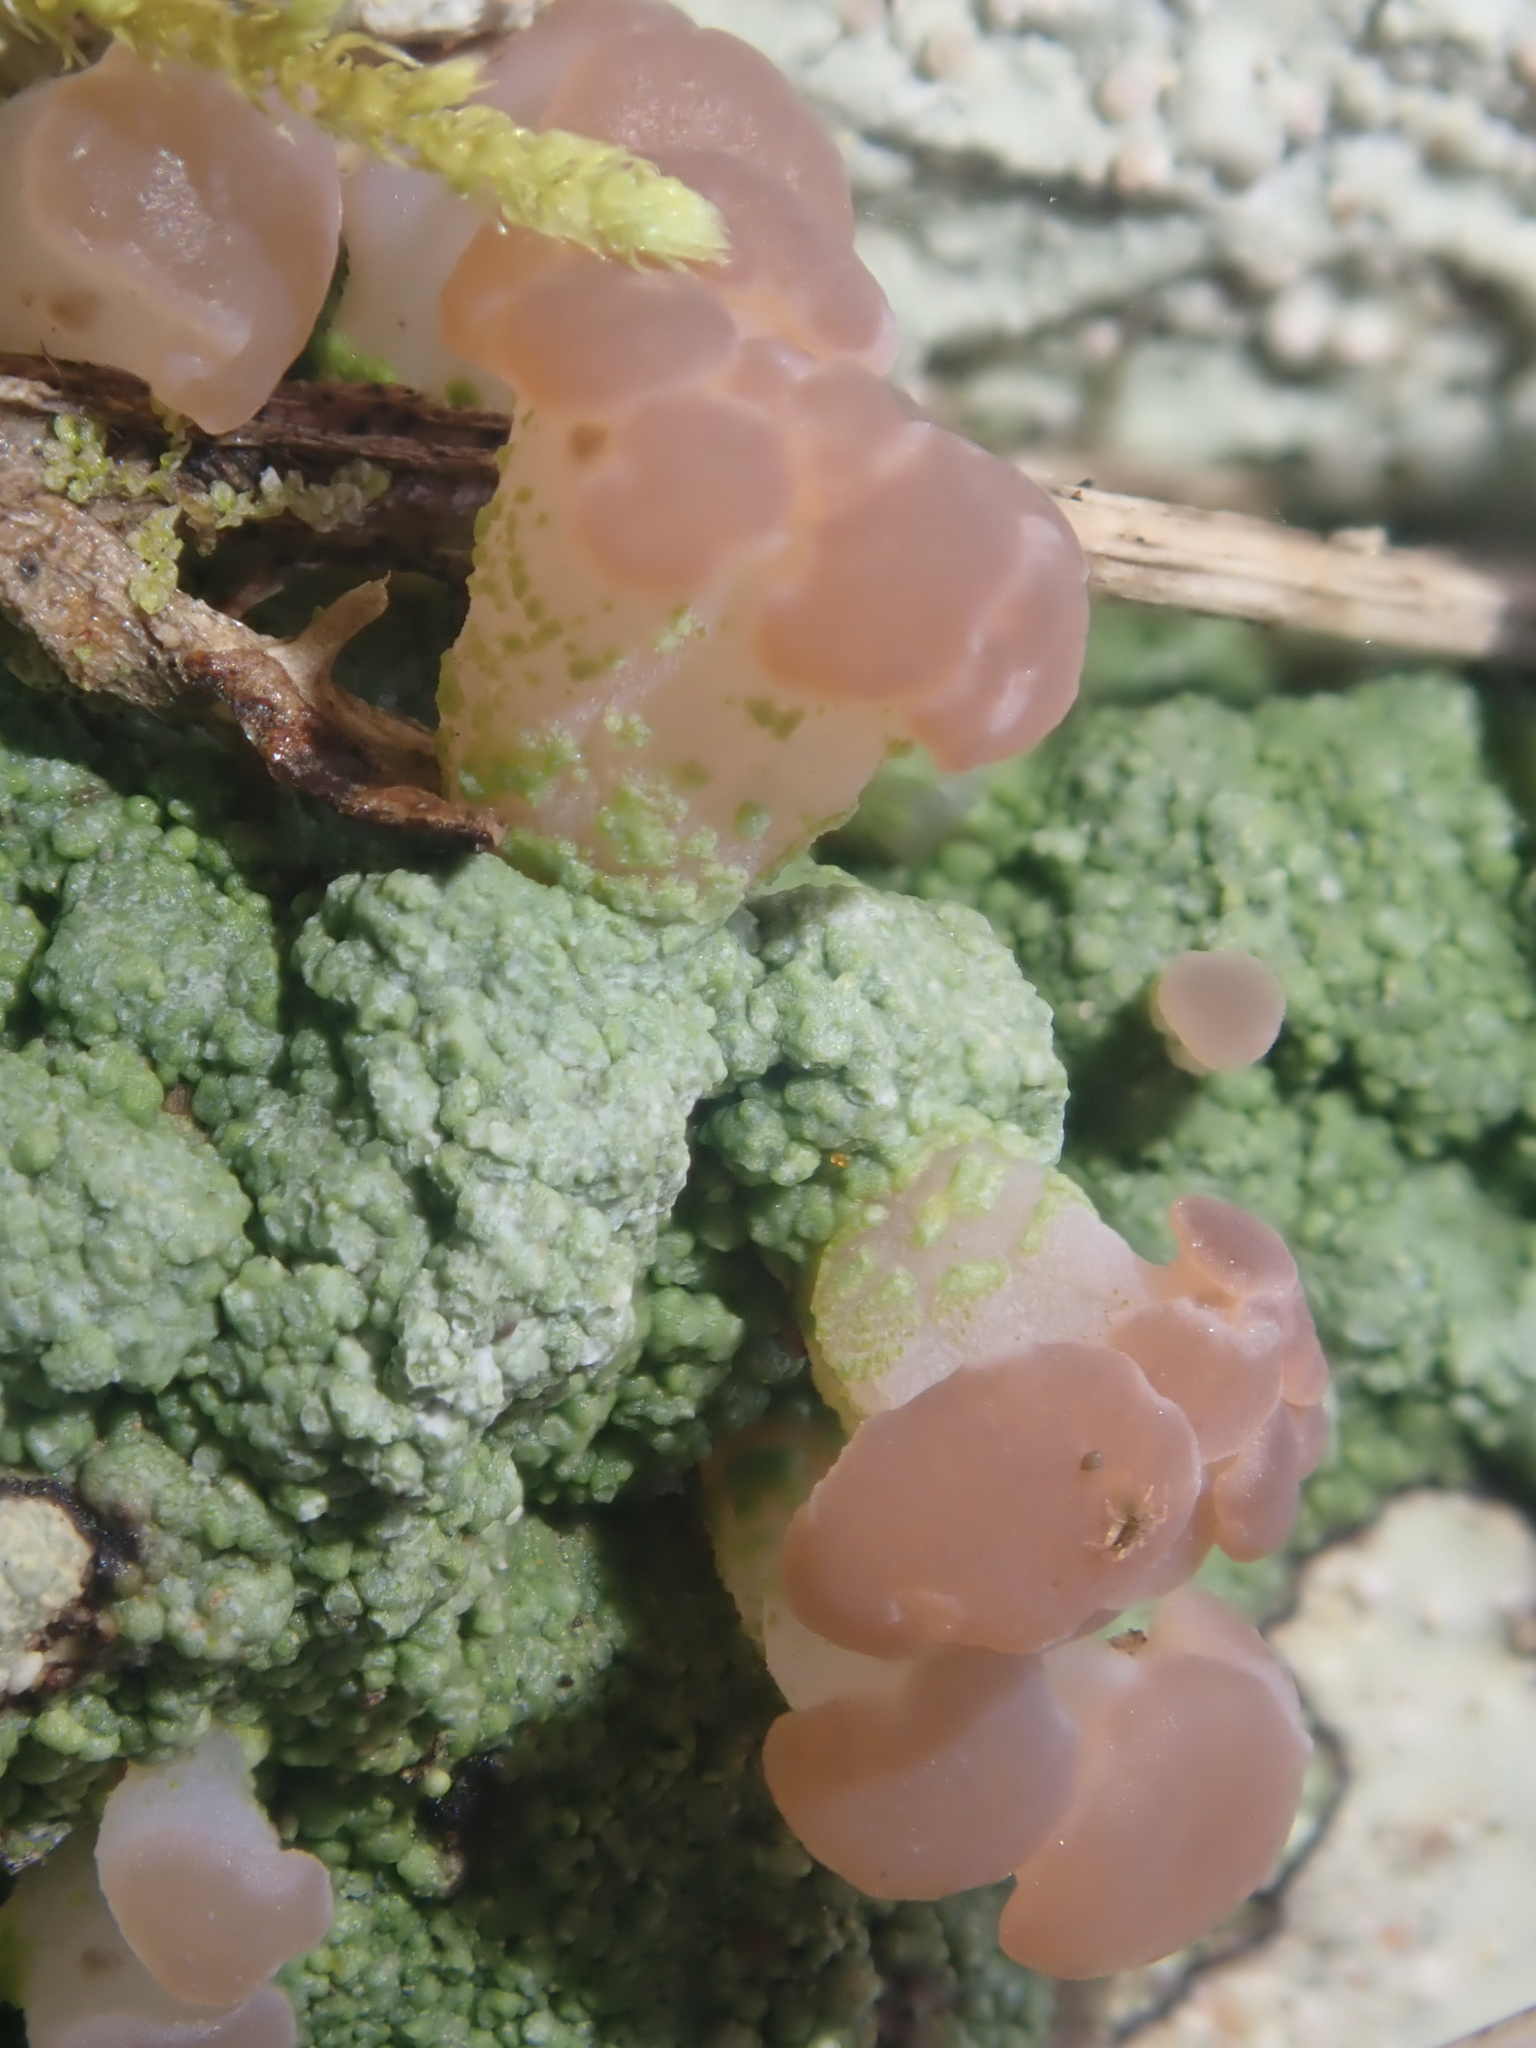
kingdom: Fungi
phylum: Ascomycota
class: Lecanoromycetes
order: Baeomycetales
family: Baeomycetaceae
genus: Baeomyces
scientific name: Baeomyces heteromorphus
